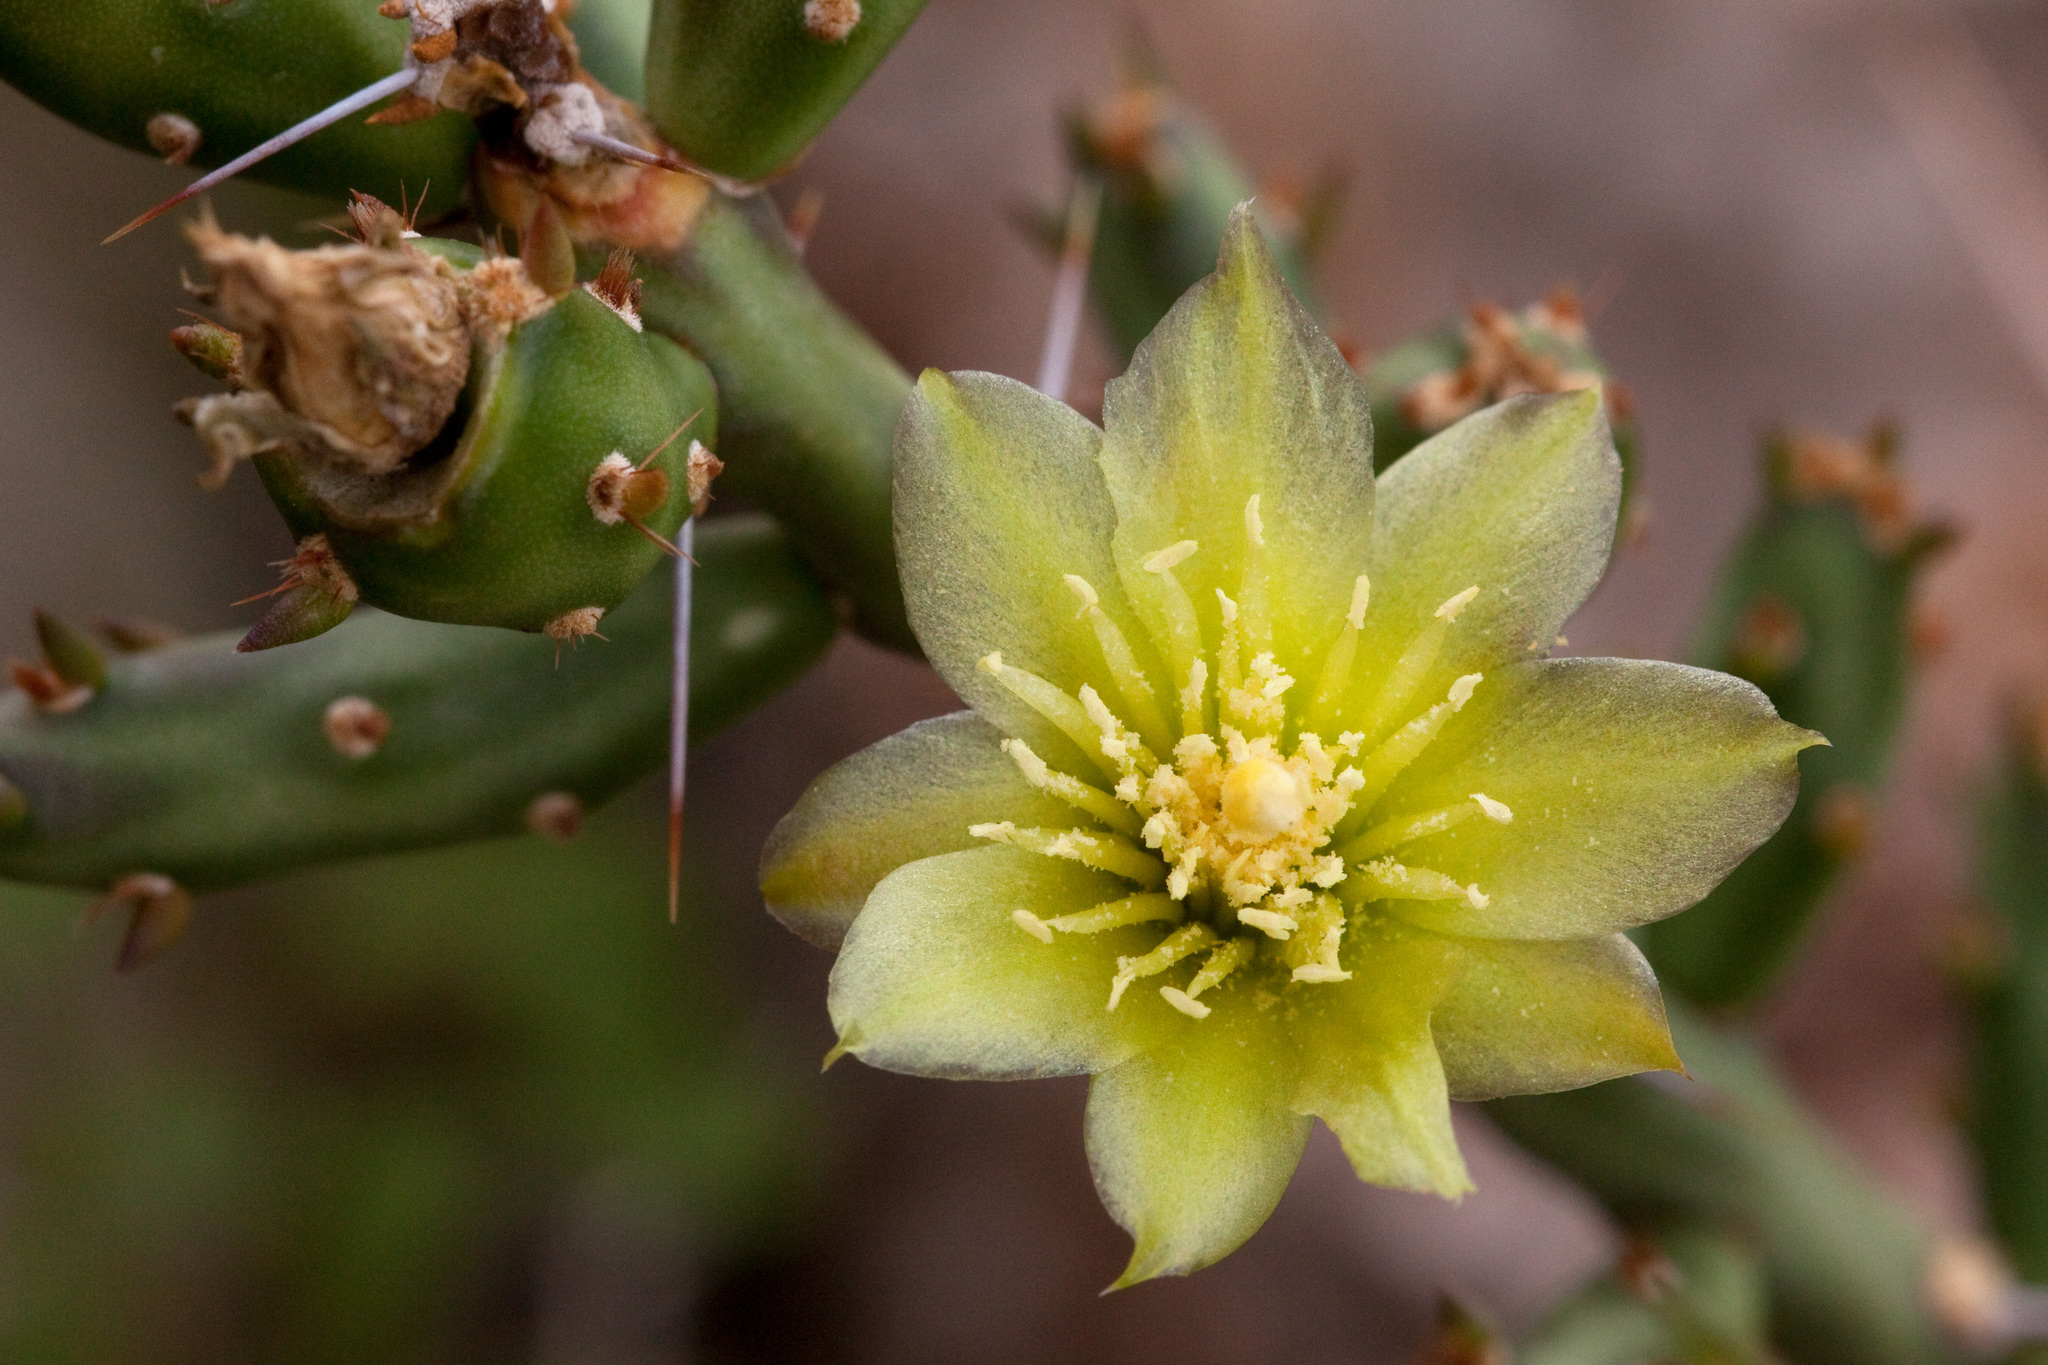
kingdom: Plantae
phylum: Tracheophyta
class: Magnoliopsida
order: Caryophyllales
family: Cactaceae
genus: Cylindropuntia
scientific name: Cylindropuntia leptocaulis
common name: Christmas cactus
